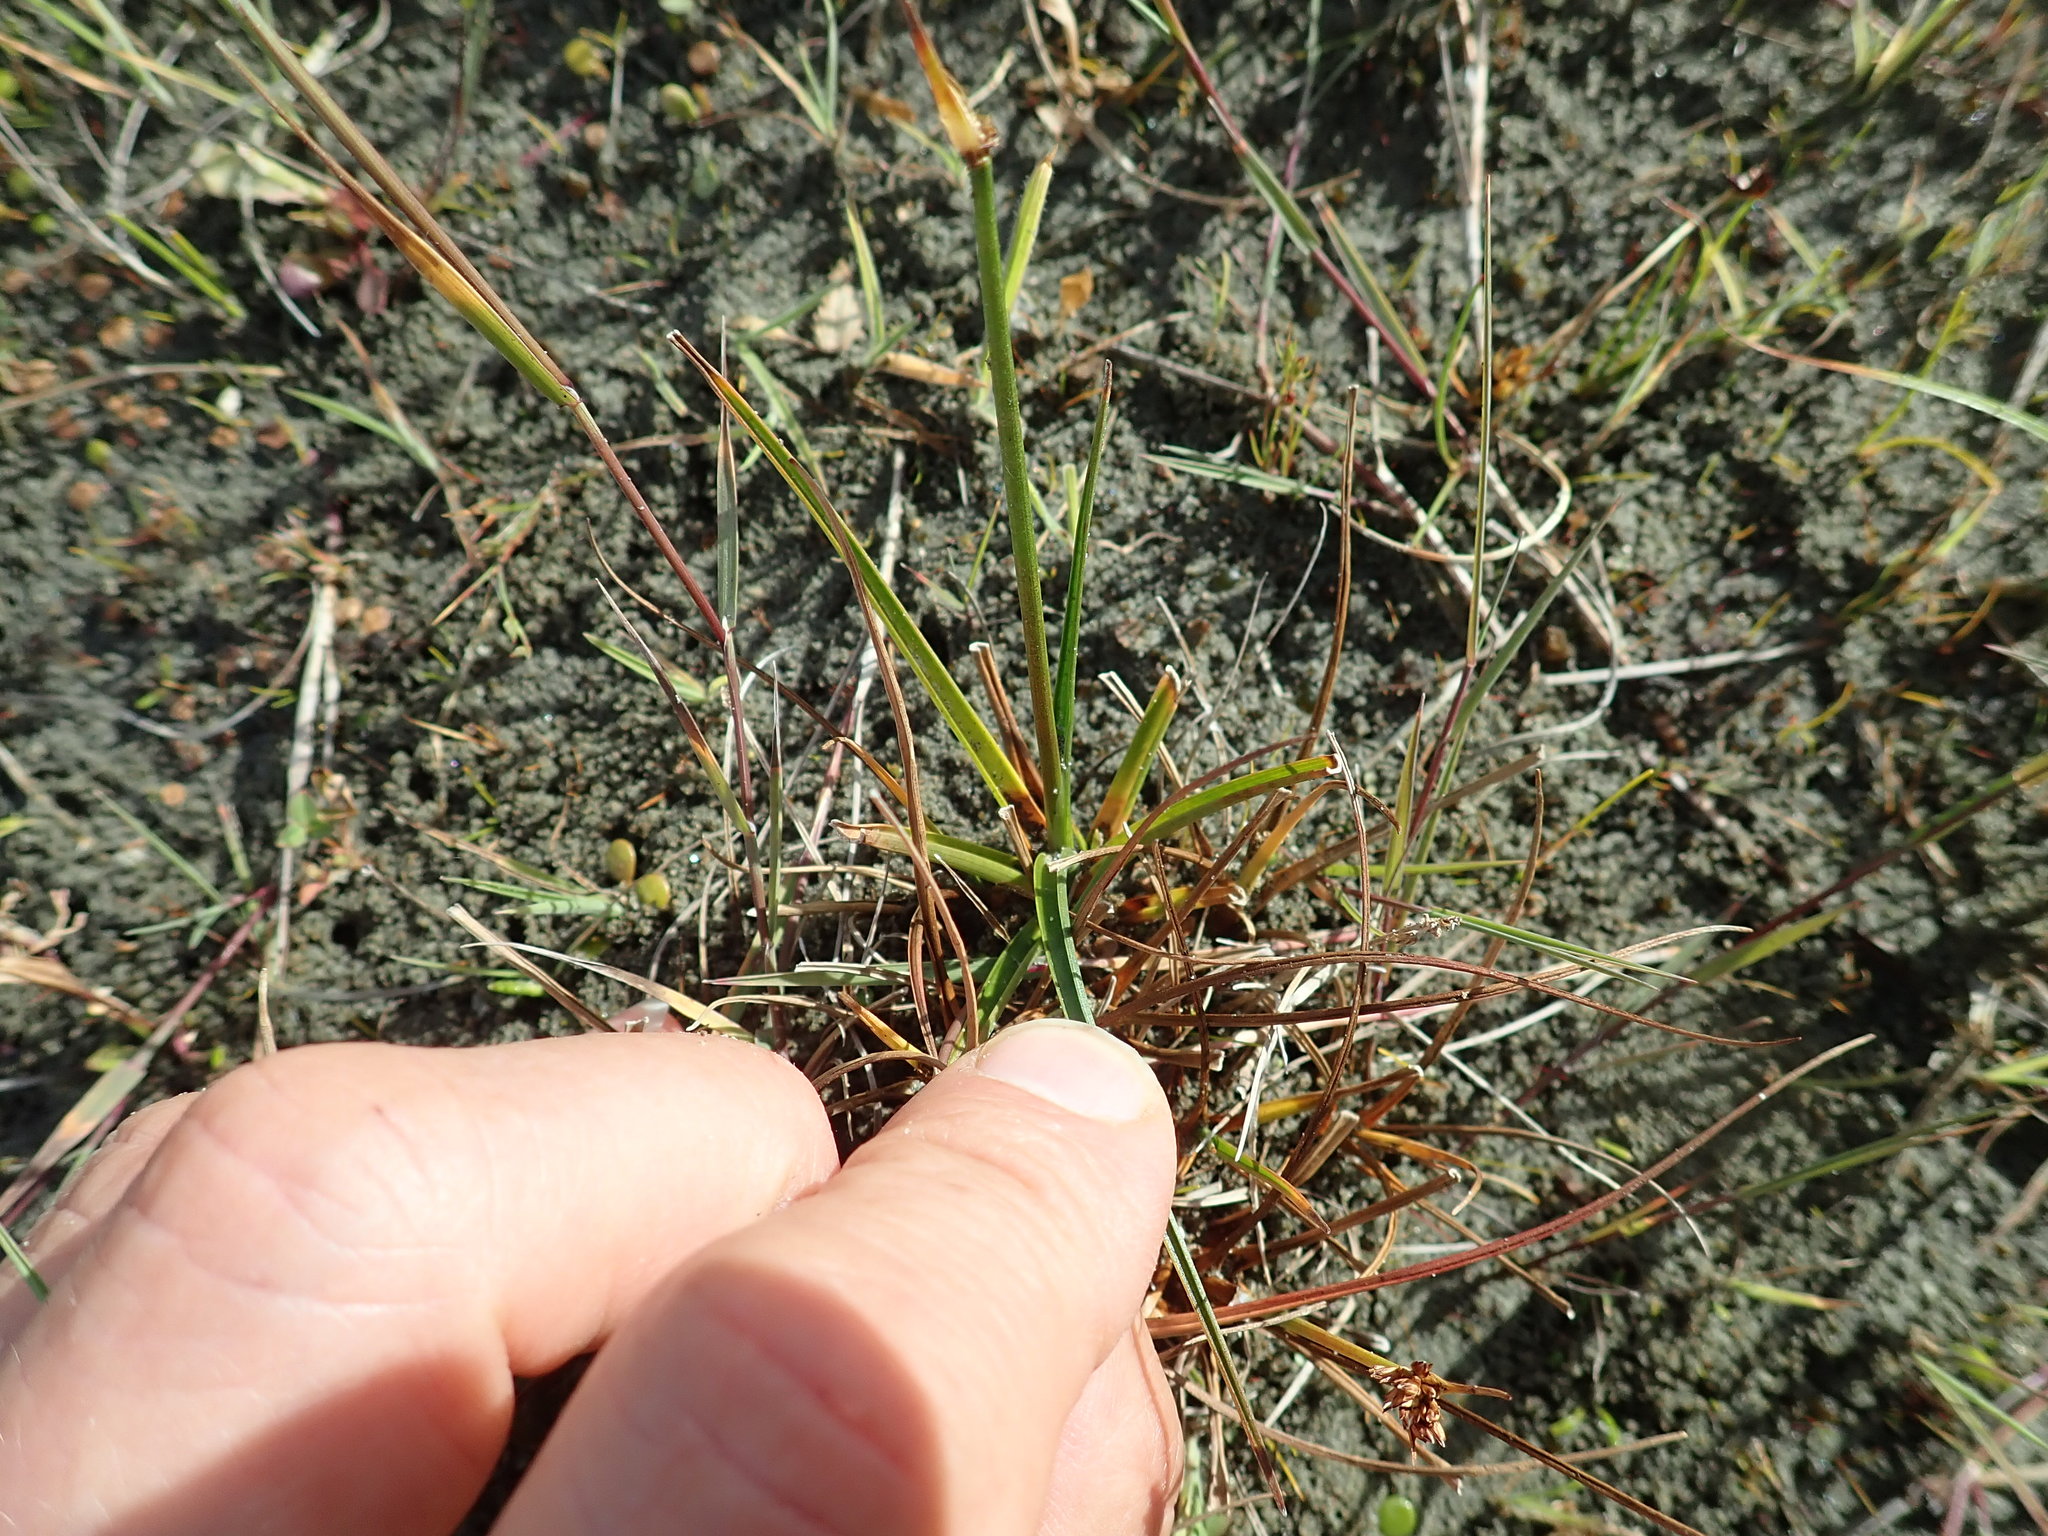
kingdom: Plantae
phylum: Tracheophyta
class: Liliopsida
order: Poales
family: Juncaceae
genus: Juncus
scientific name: Juncus caespiticius
